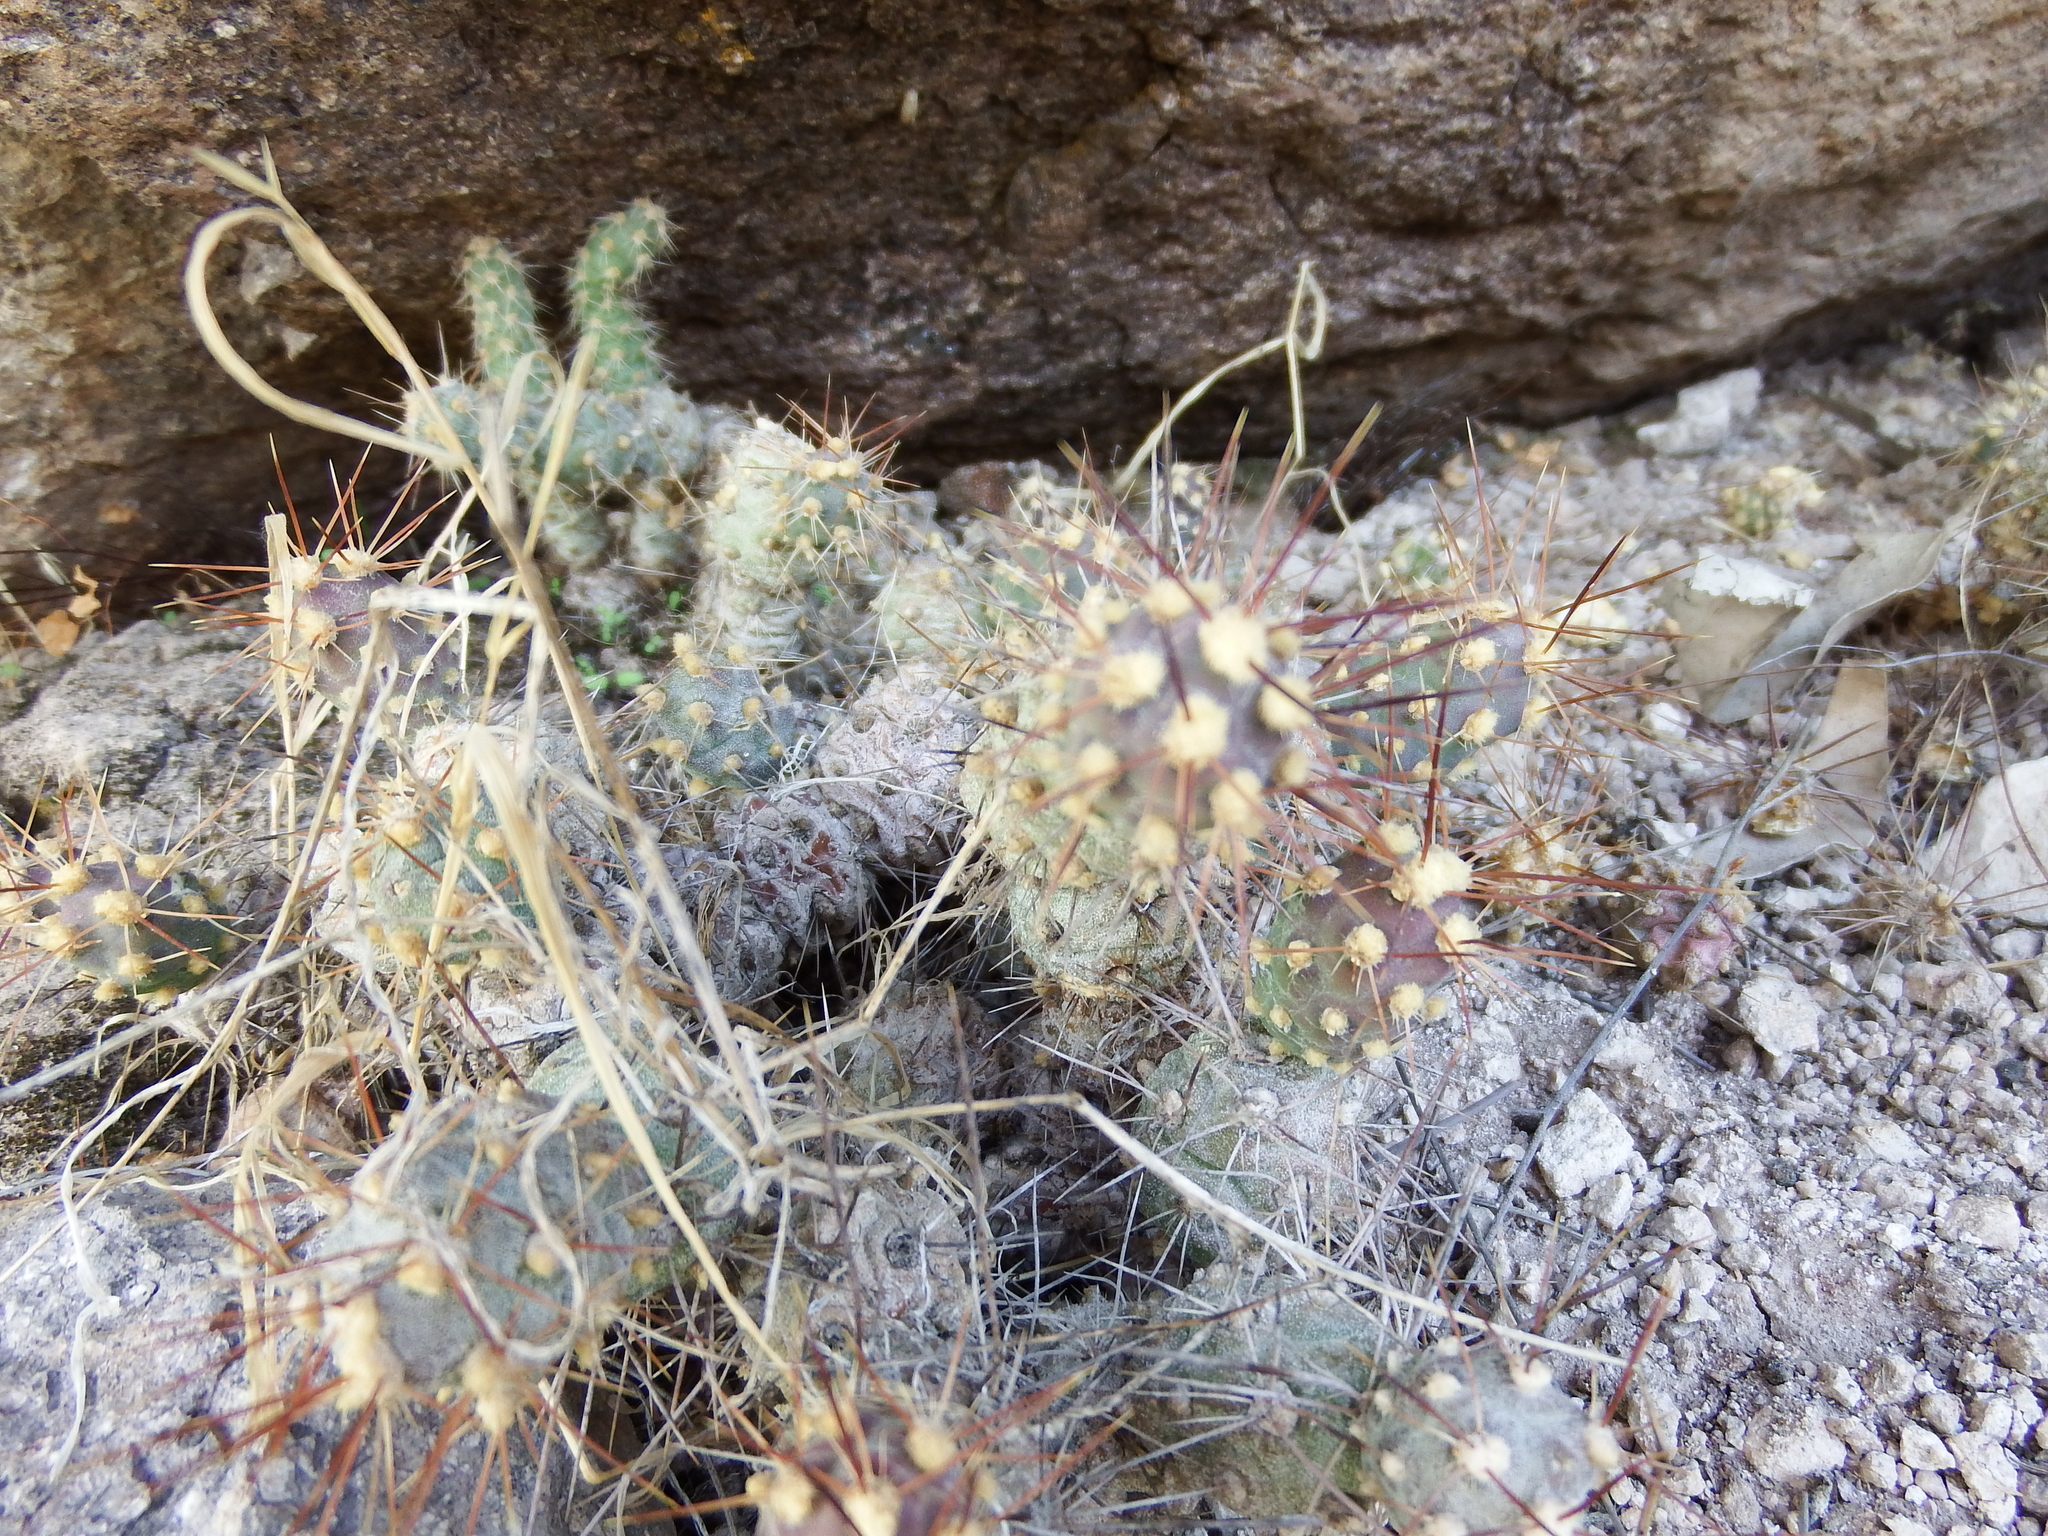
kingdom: Plantae
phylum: Tracheophyta
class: Magnoliopsida
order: Caryophyllales
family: Cactaceae
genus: Cumulopuntia
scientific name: Cumulopuntia leucophaea
